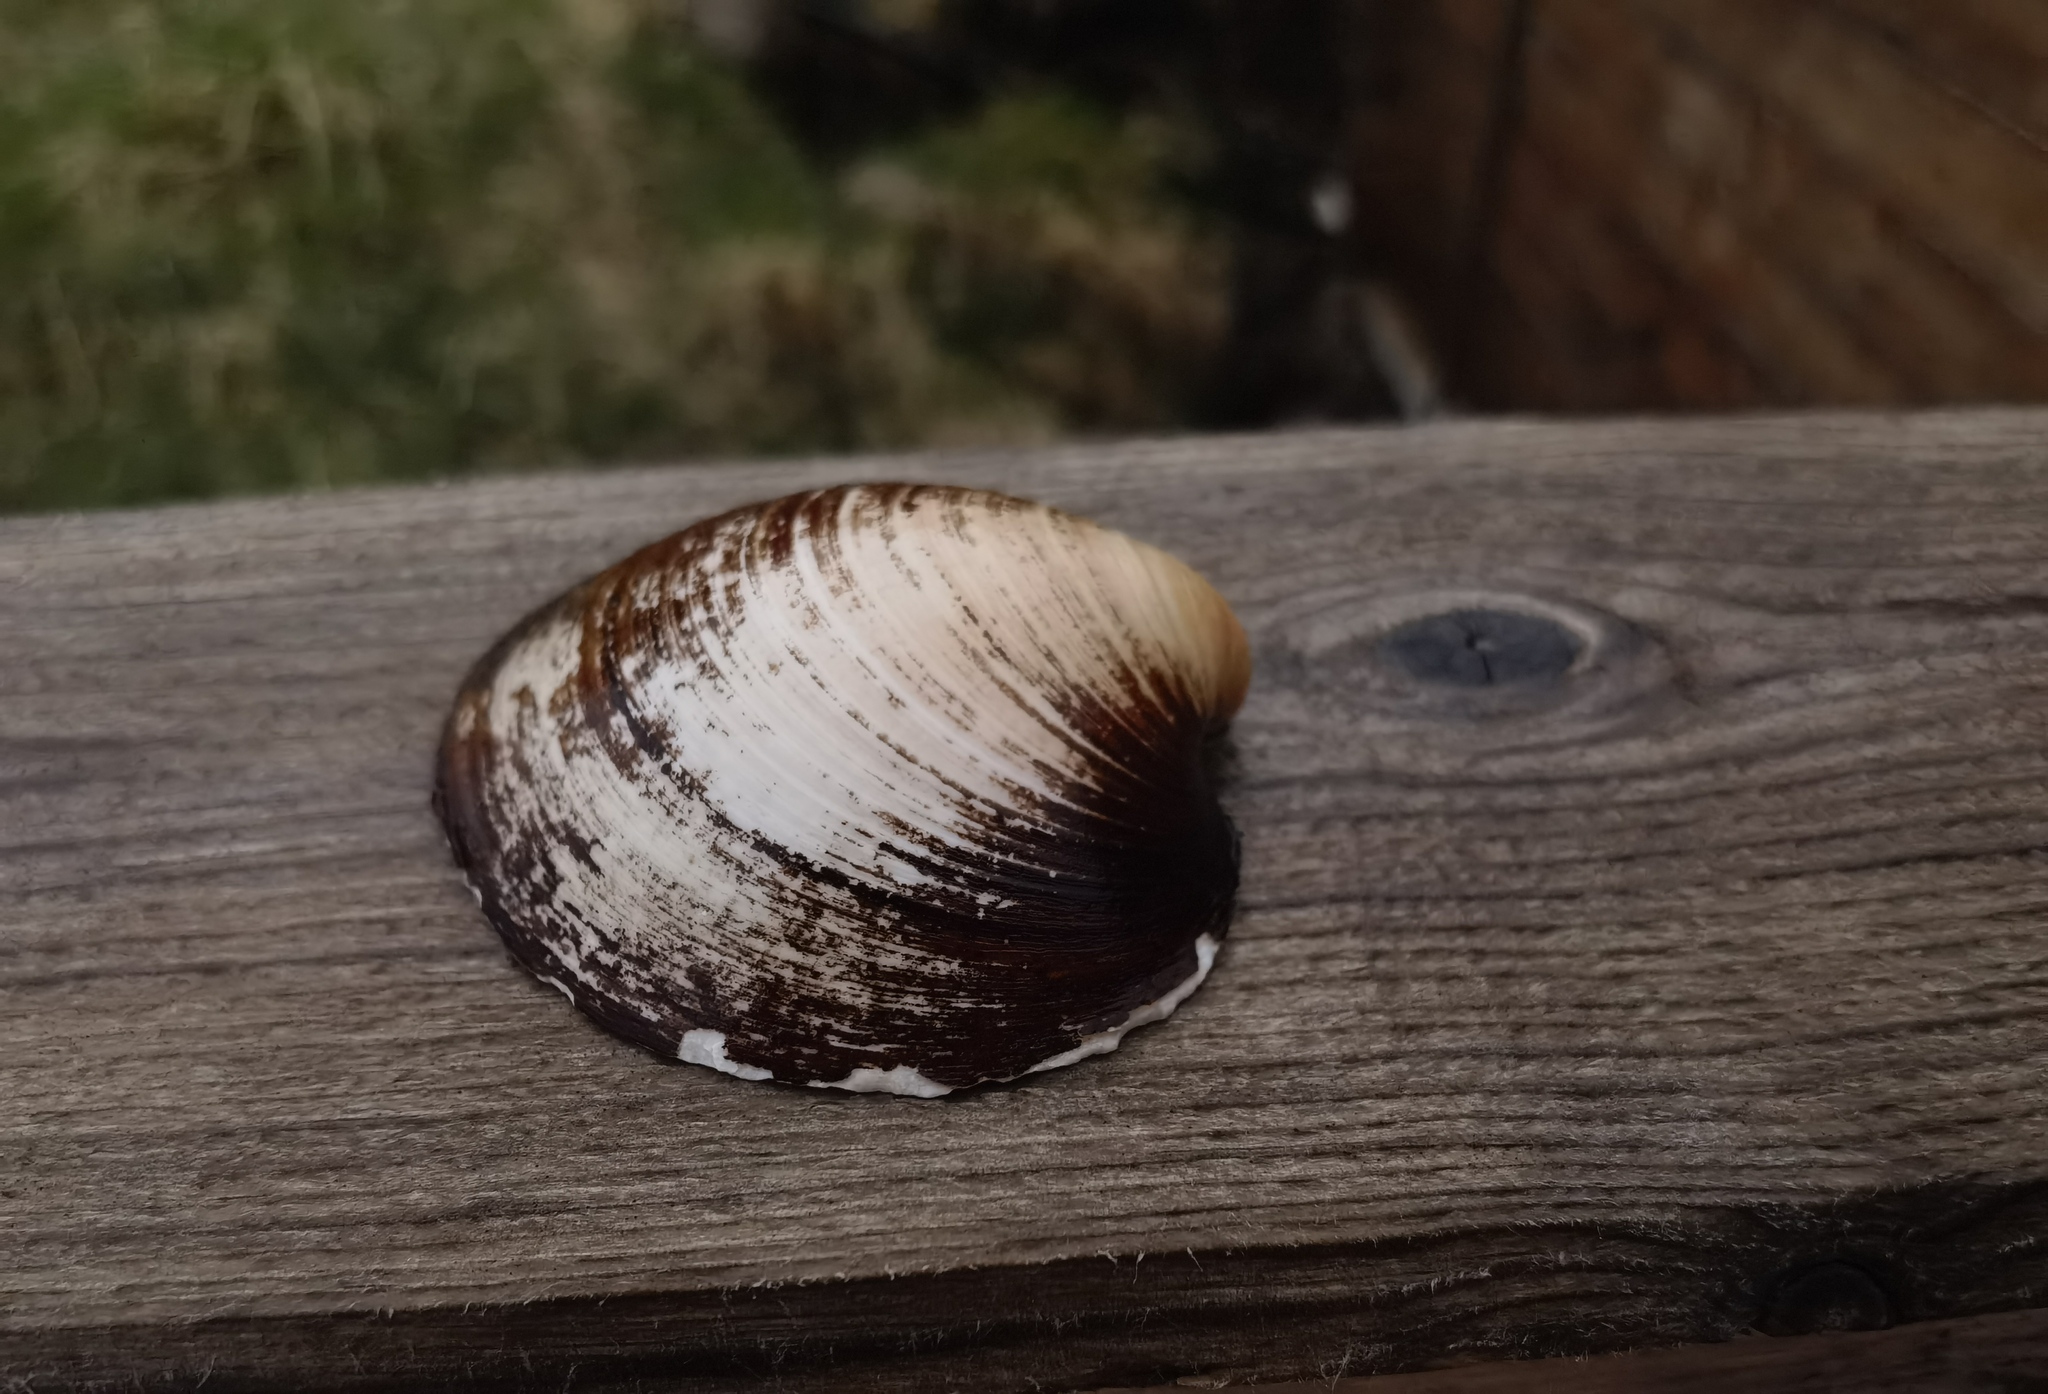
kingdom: Animalia
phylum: Mollusca
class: Bivalvia
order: Venerida
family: Arcticidae
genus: Arctica
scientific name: Arctica islandica
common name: Icelandic cyprine
